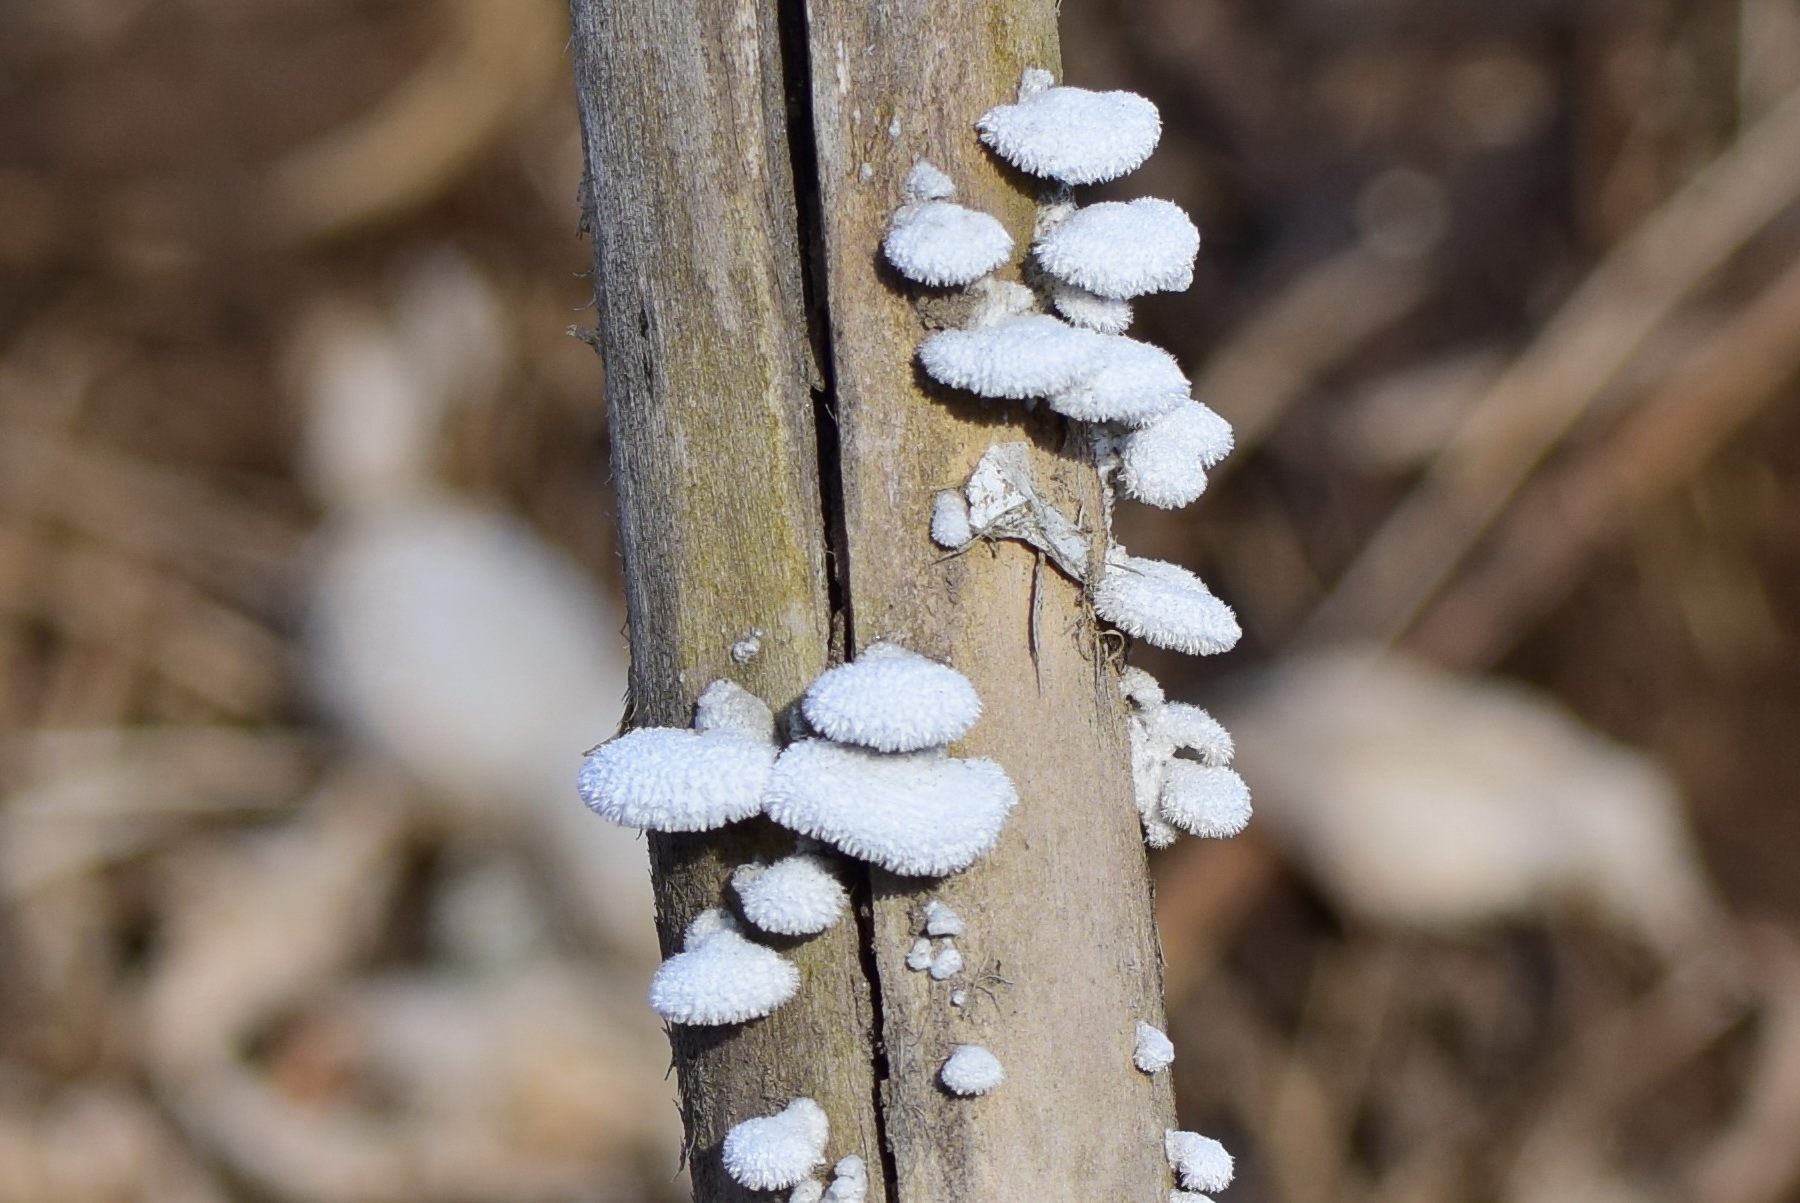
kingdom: Fungi
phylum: Basidiomycota
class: Agaricomycetes
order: Agaricales
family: Schizophyllaceae
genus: Schizophyllum
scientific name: Schizophyllum commune
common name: Common porecrust
